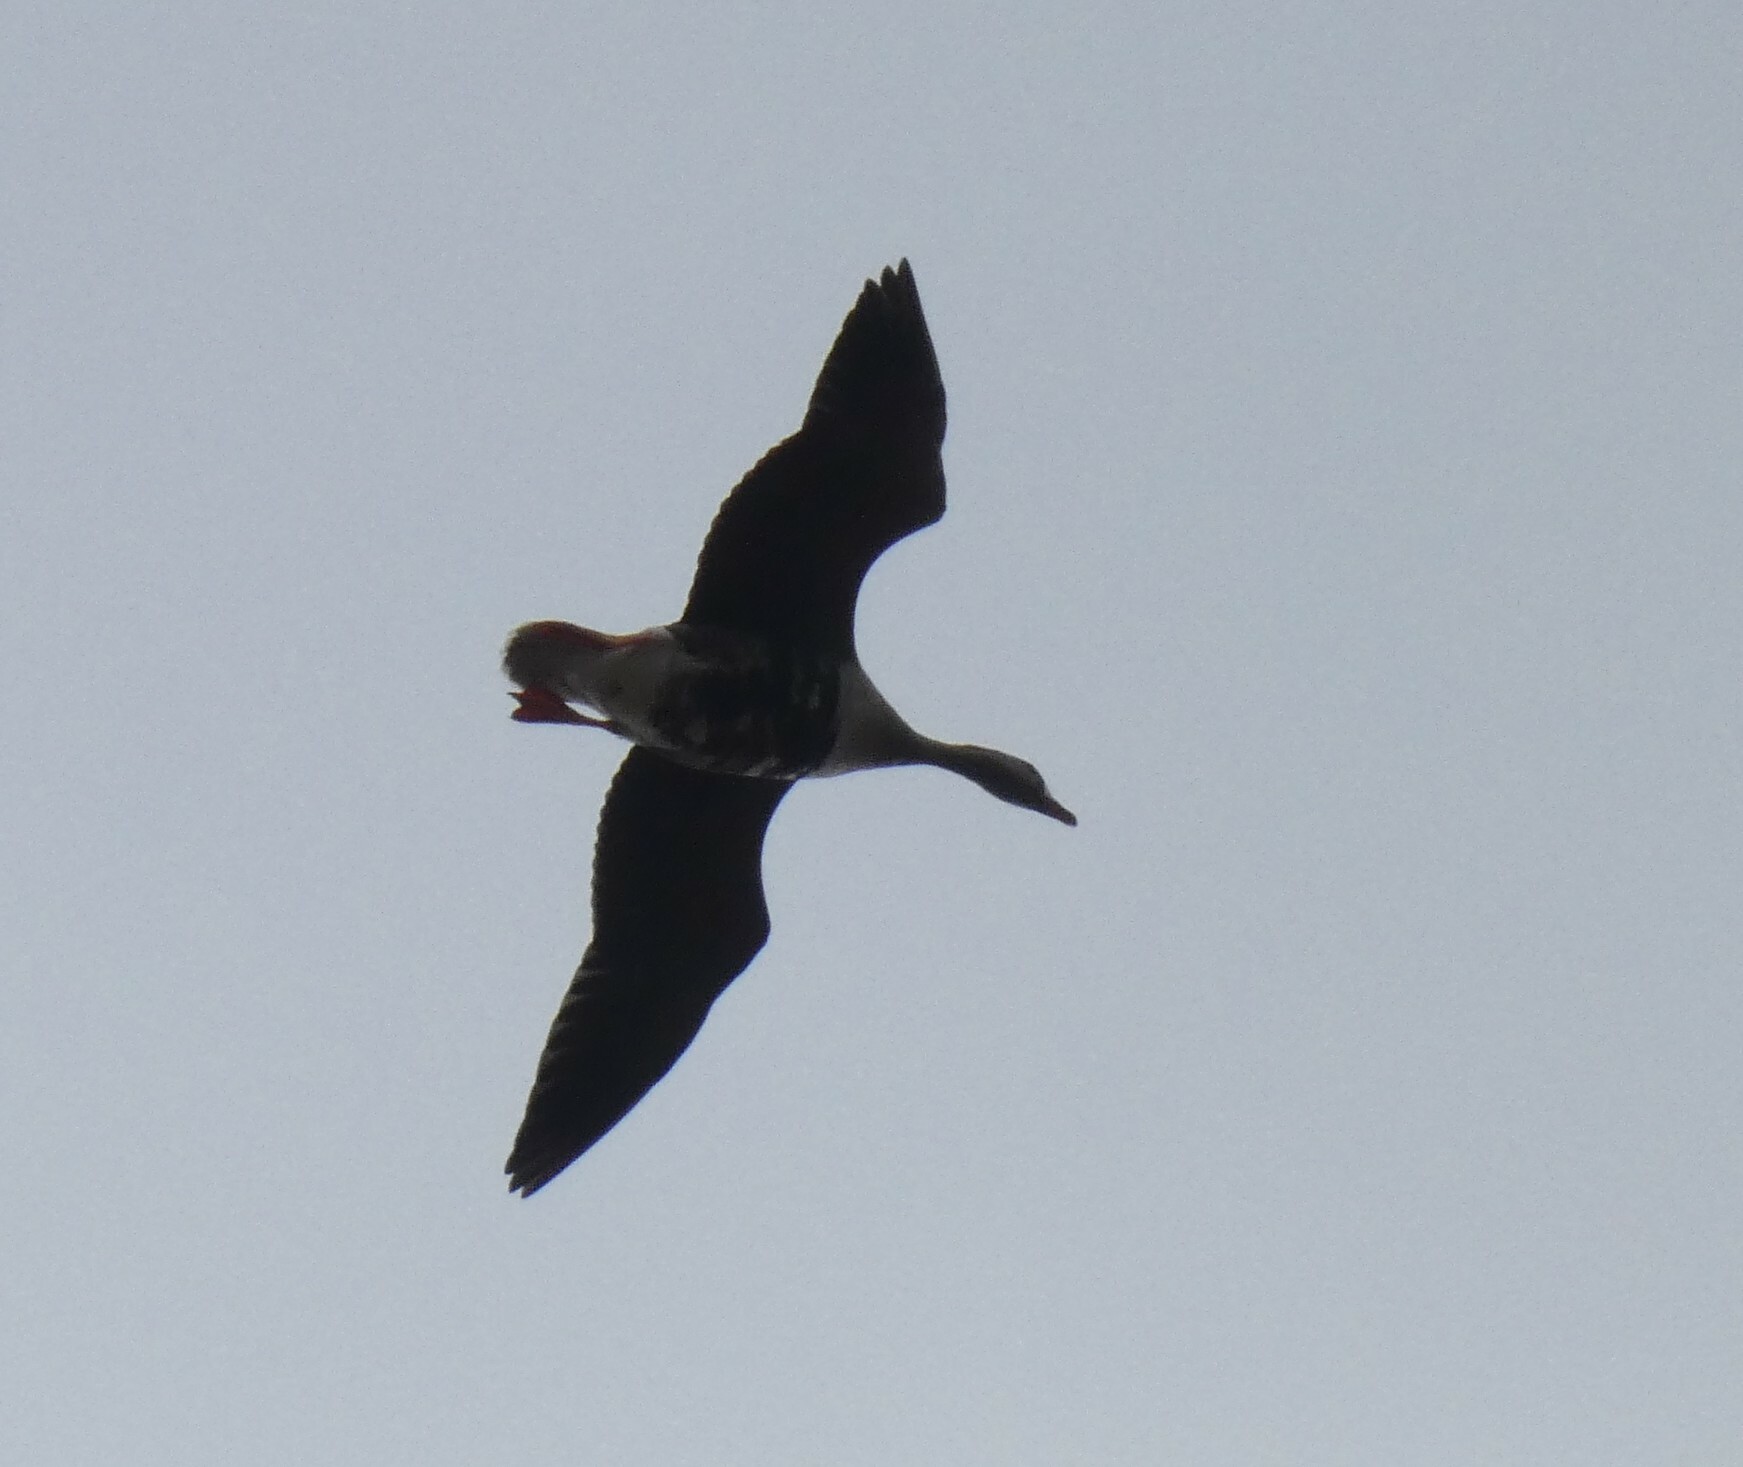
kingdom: Animalia
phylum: Chordata
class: Aves
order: Anseriformes
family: Anatidae
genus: Anser
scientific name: Anser albifrons
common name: Greater white-fronted goose
